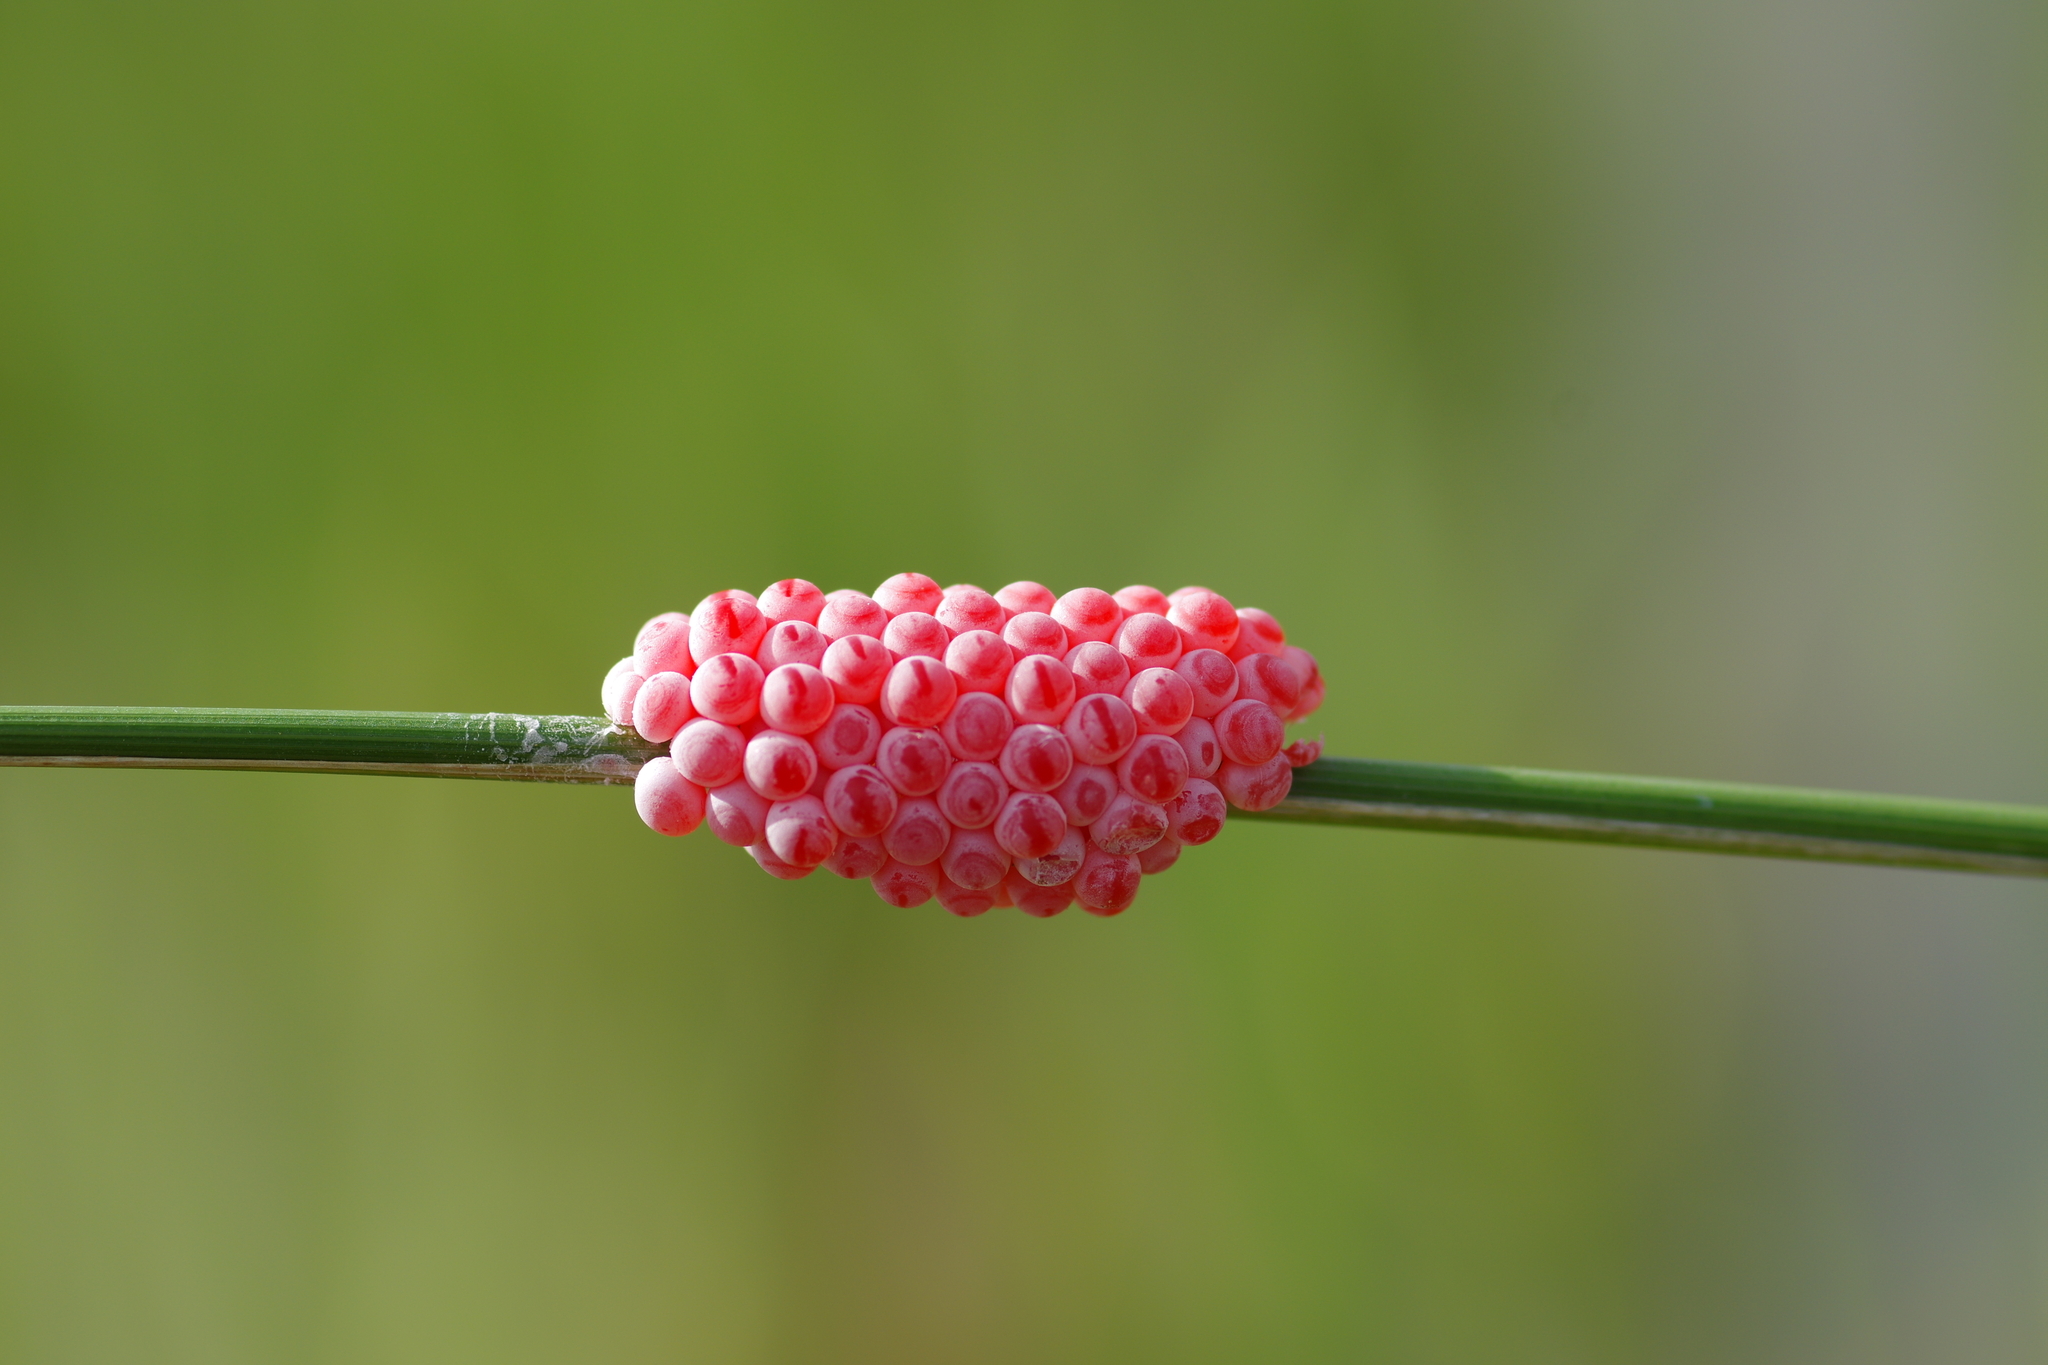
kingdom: Animalia
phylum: Mollusca
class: Gastropoda
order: Architaenioglossa
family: Ampullariidae
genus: Pomacea
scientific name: Pomacea canaliculata
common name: Channeled applesnail
